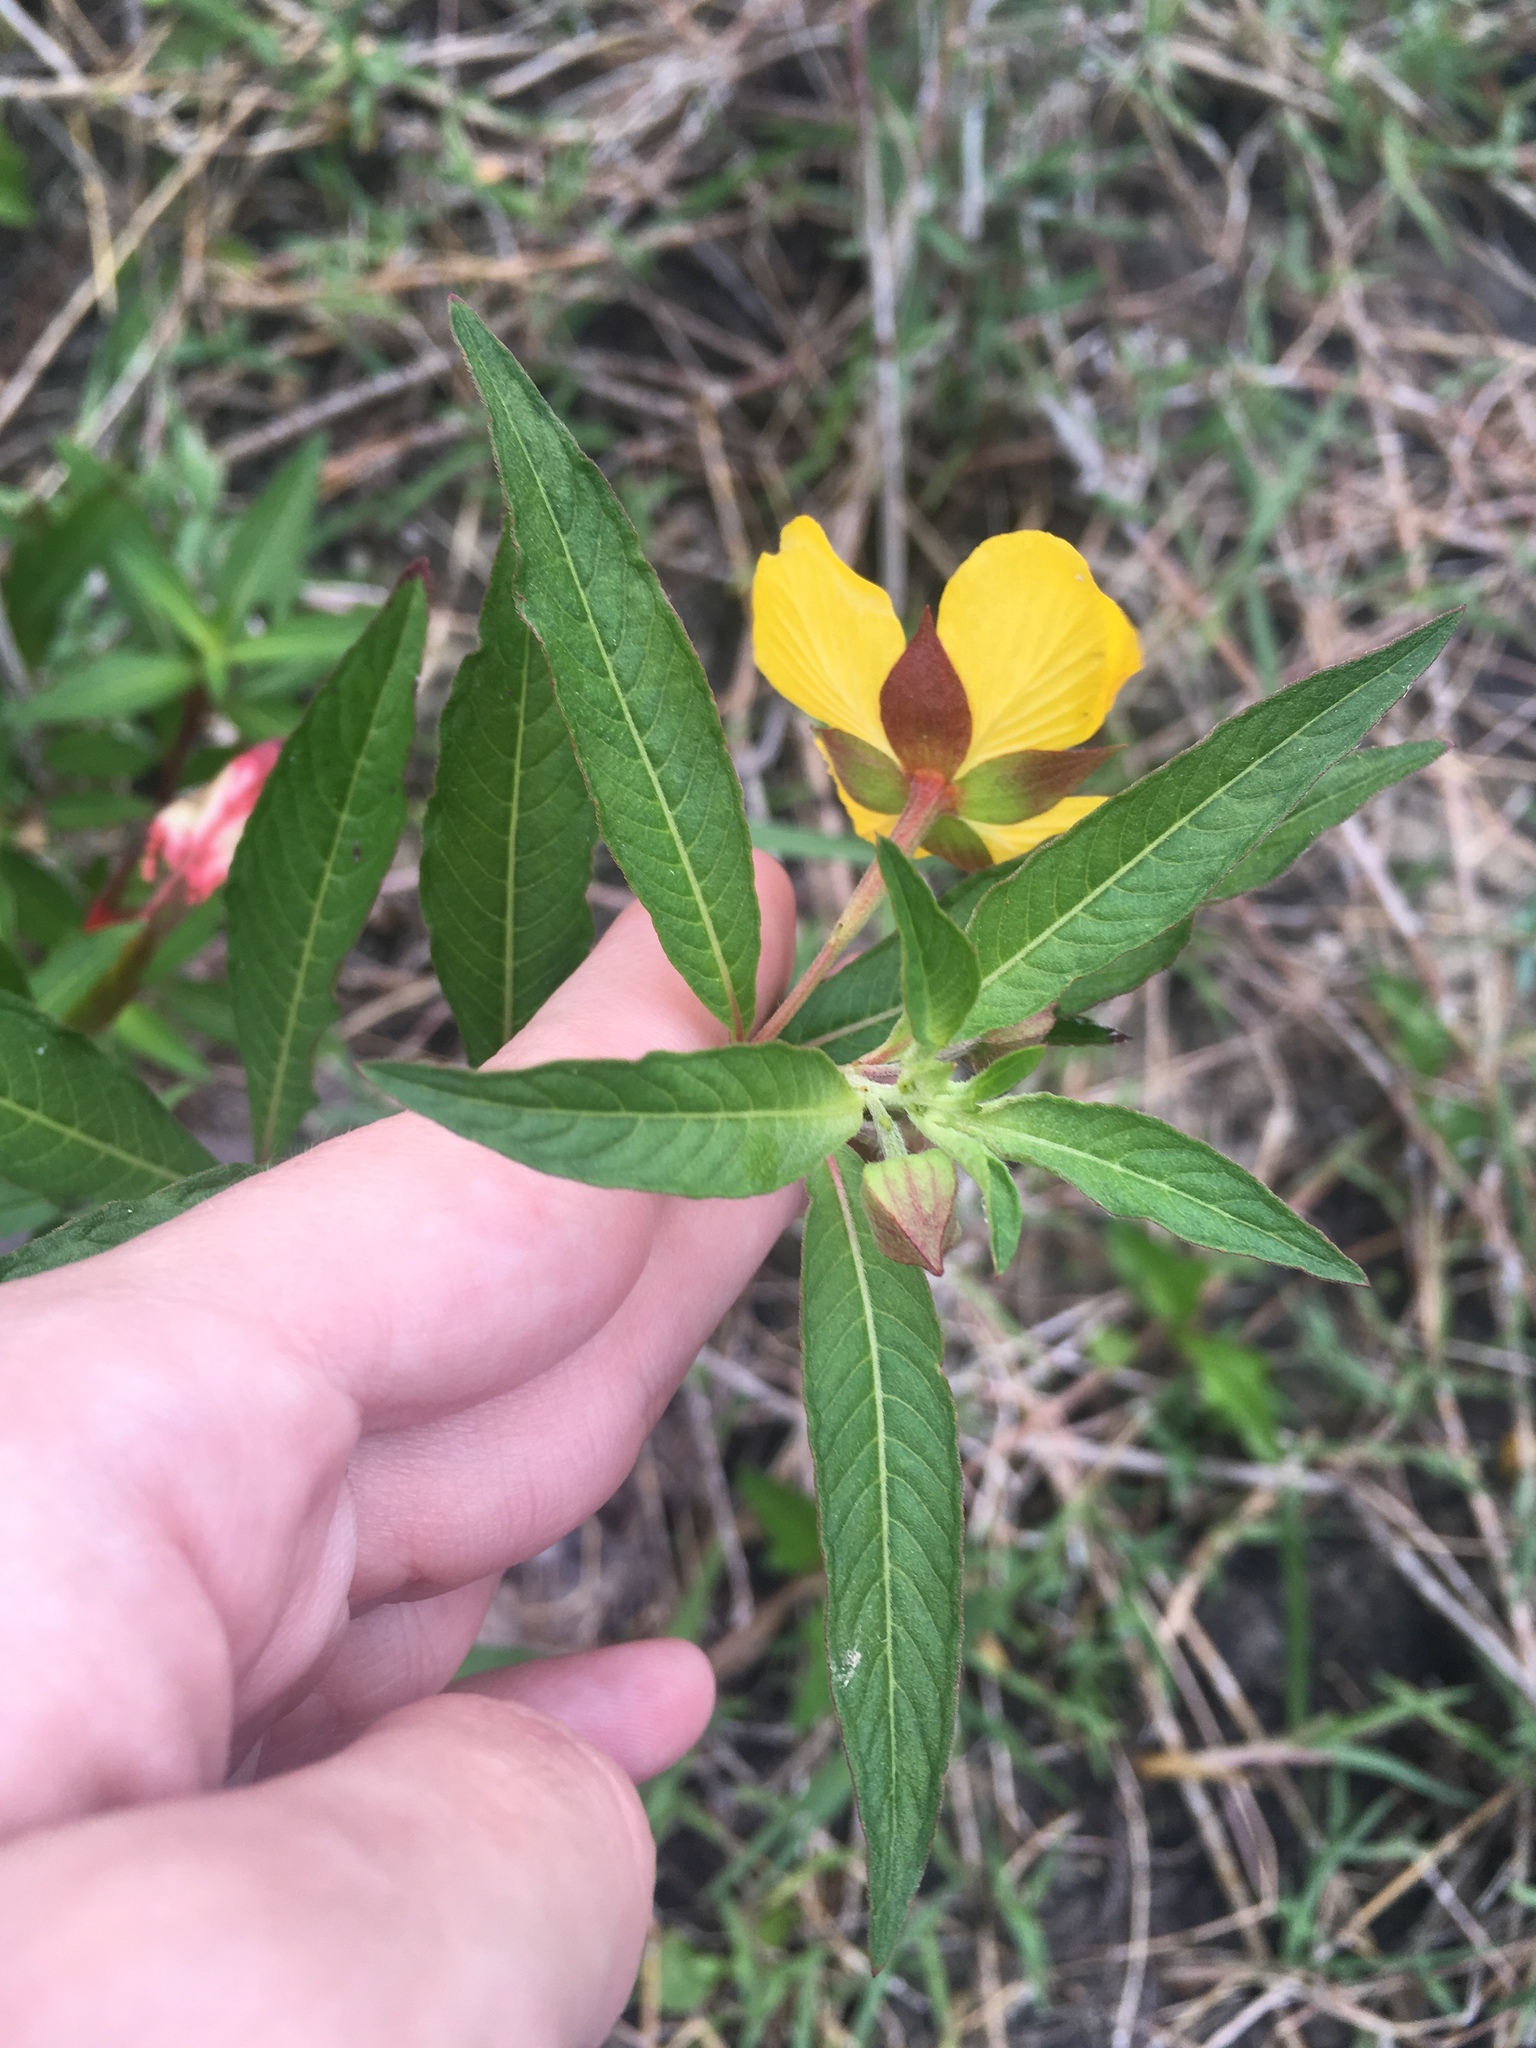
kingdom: Plantae
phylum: Tracheophyta
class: Magnoliopsida
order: Myrtales
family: Onagraceae
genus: Ludwigia
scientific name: Ludwigia octovalvis
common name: Water-primrose
